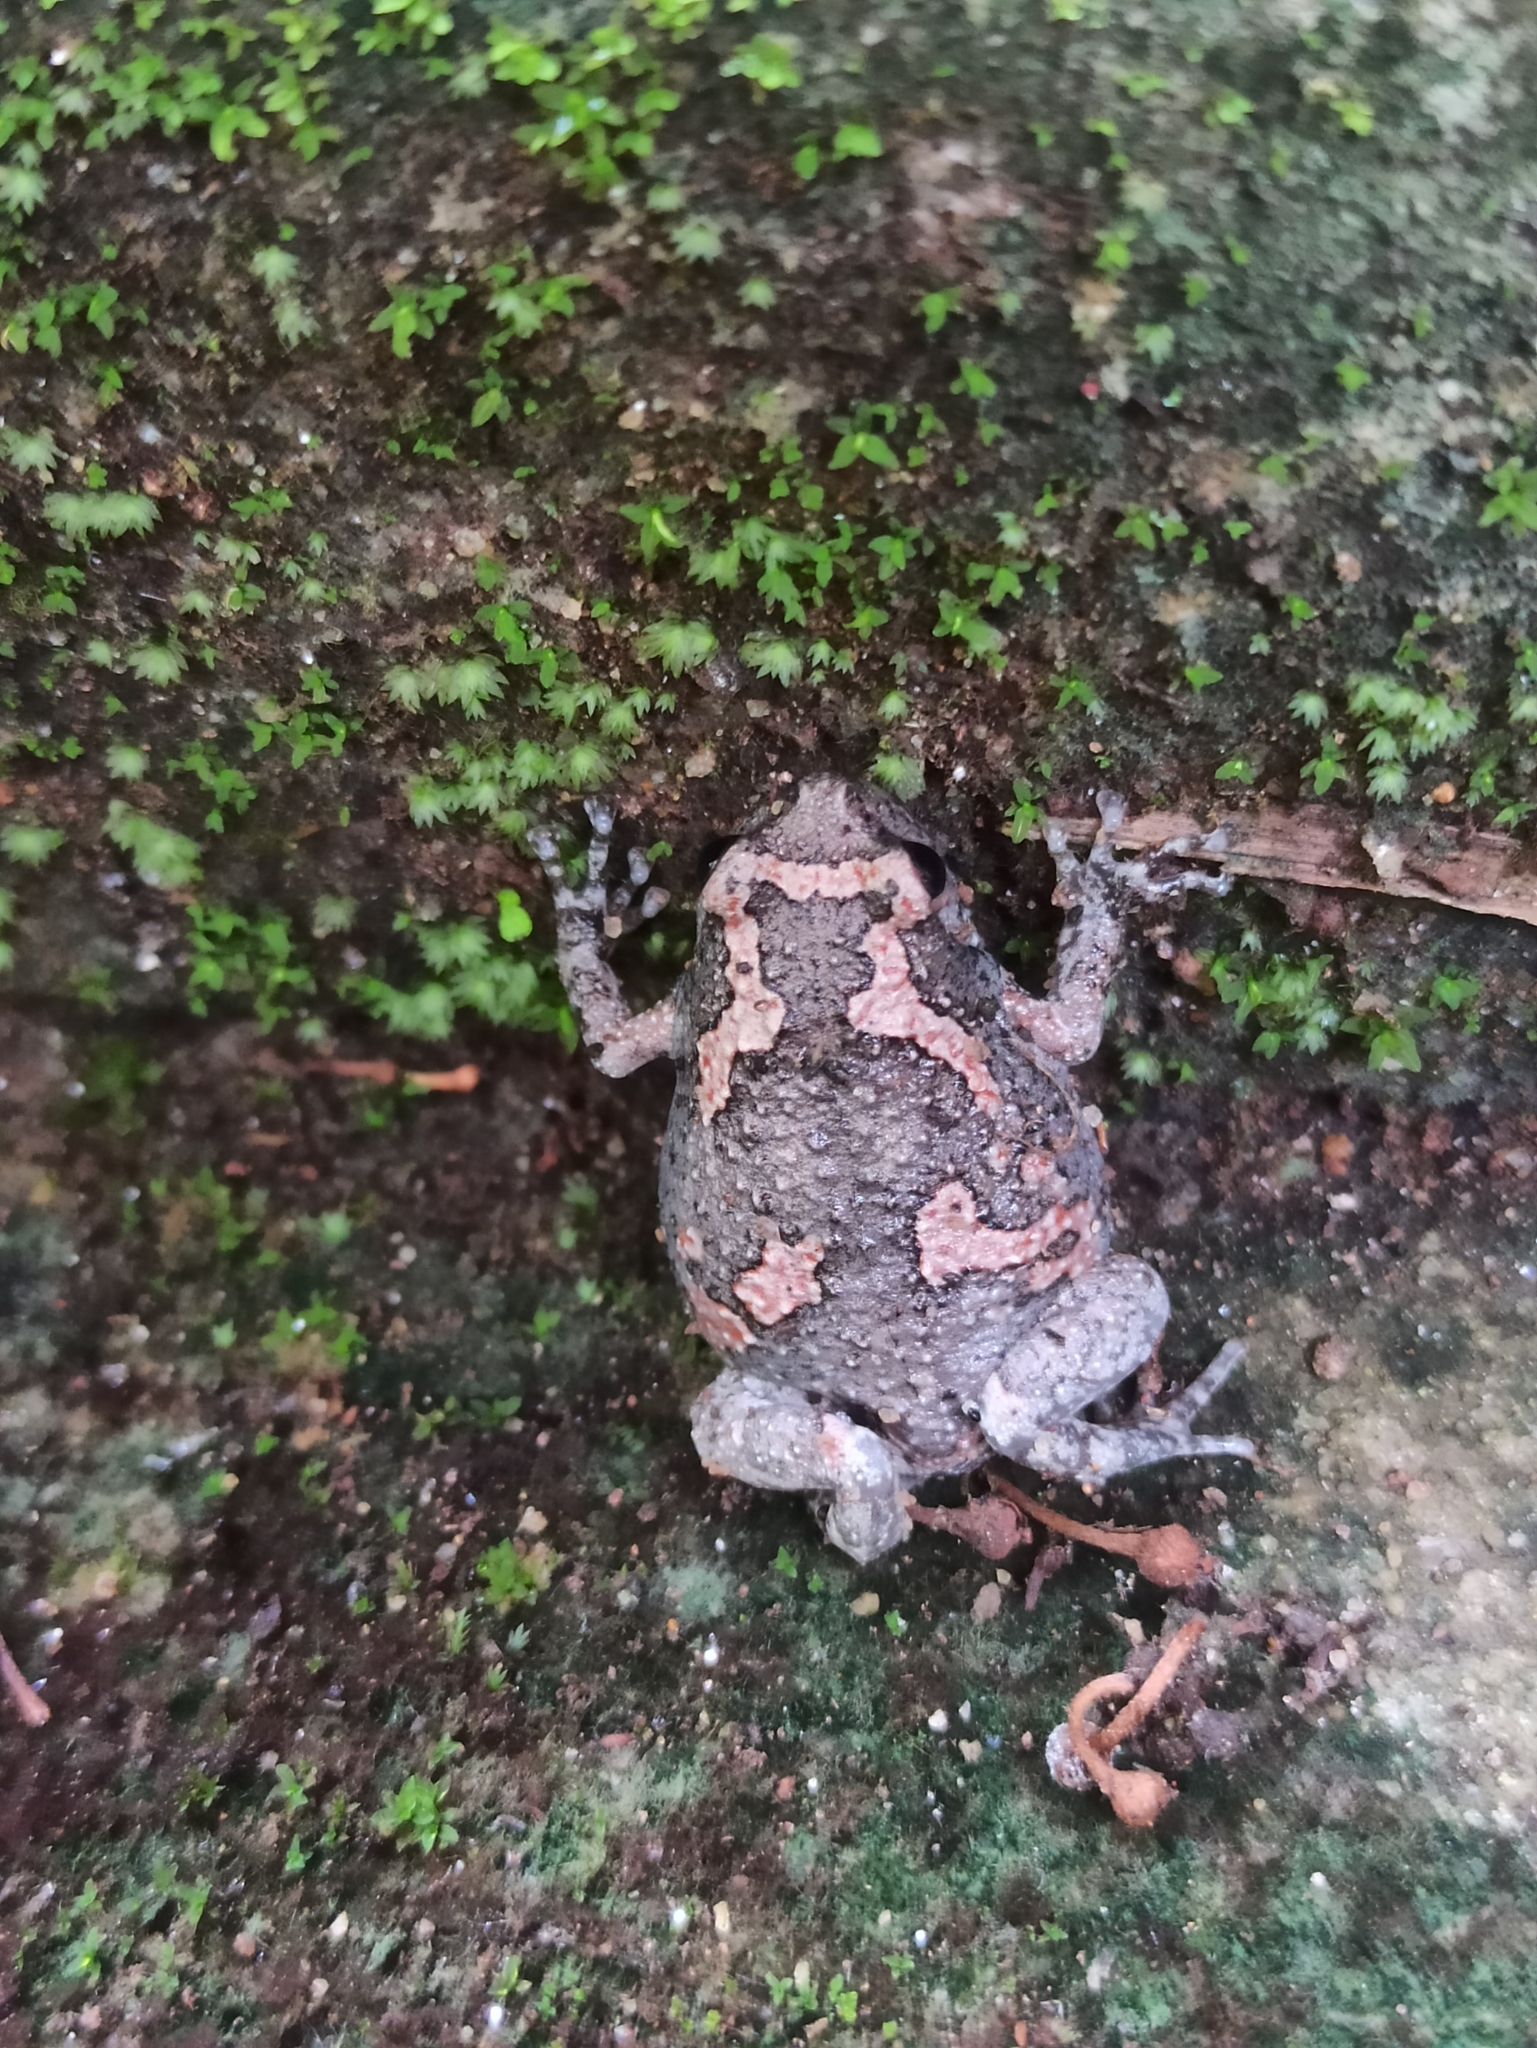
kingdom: Animalia
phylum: Chordata
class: Amphibia
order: Anura
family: Microhylidae
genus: Uperodon
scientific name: Uperodon taprobanicus
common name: Ceylon kaloula
